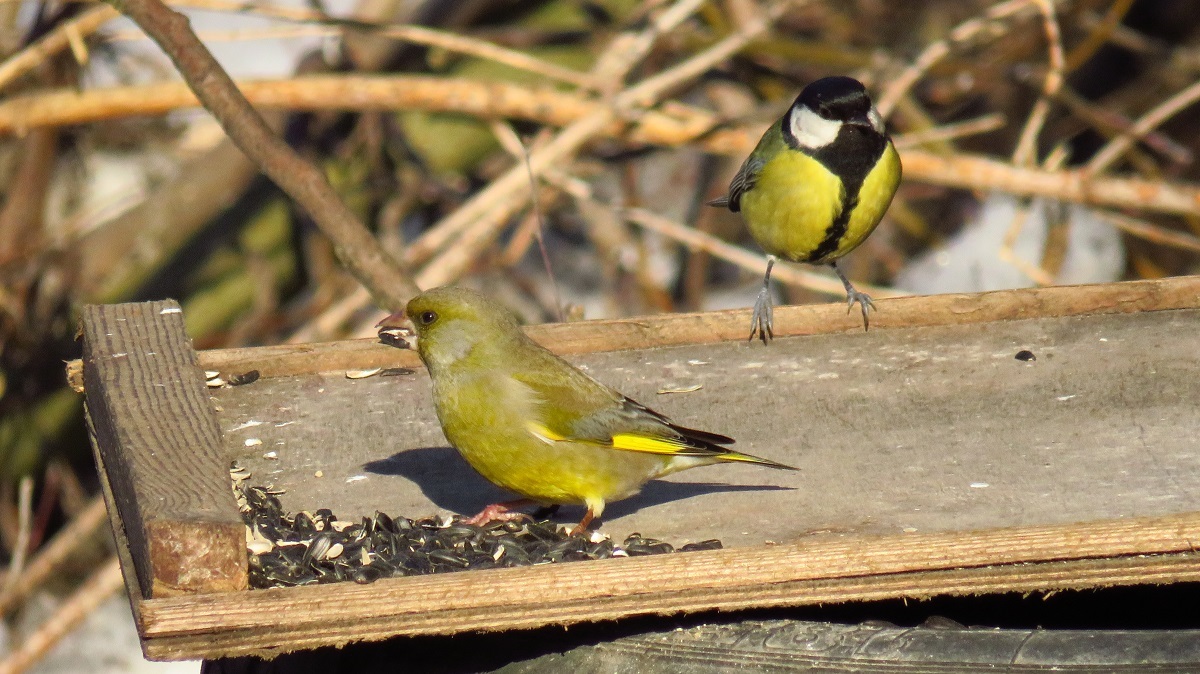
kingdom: Plantae
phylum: Tracheophyta
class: Liliopsida
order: Poales
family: Poaceae
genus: Chloris
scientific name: Chloris chloris
